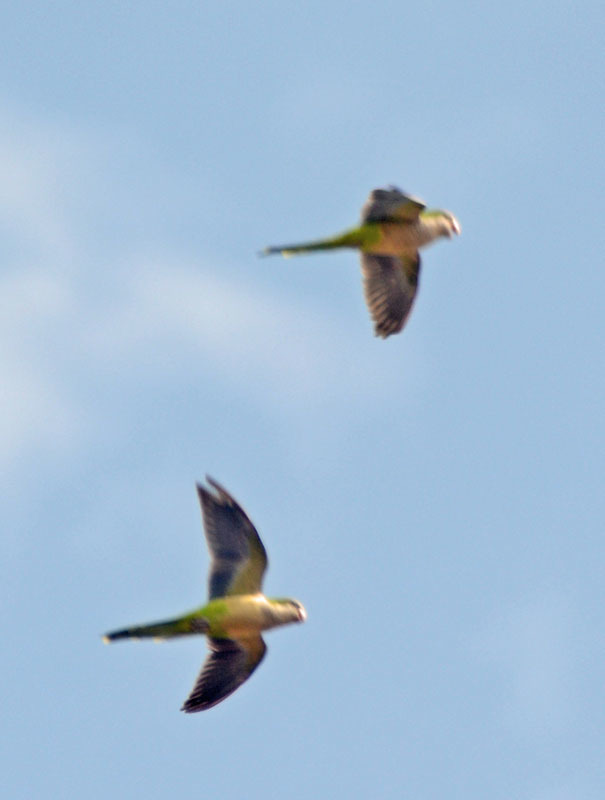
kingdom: Animalia
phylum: Chordata
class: Aves
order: Psittaciformes
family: Psittacidae
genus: Myiopsitta
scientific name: Myiopsitta monachus
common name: Monk parakeet
